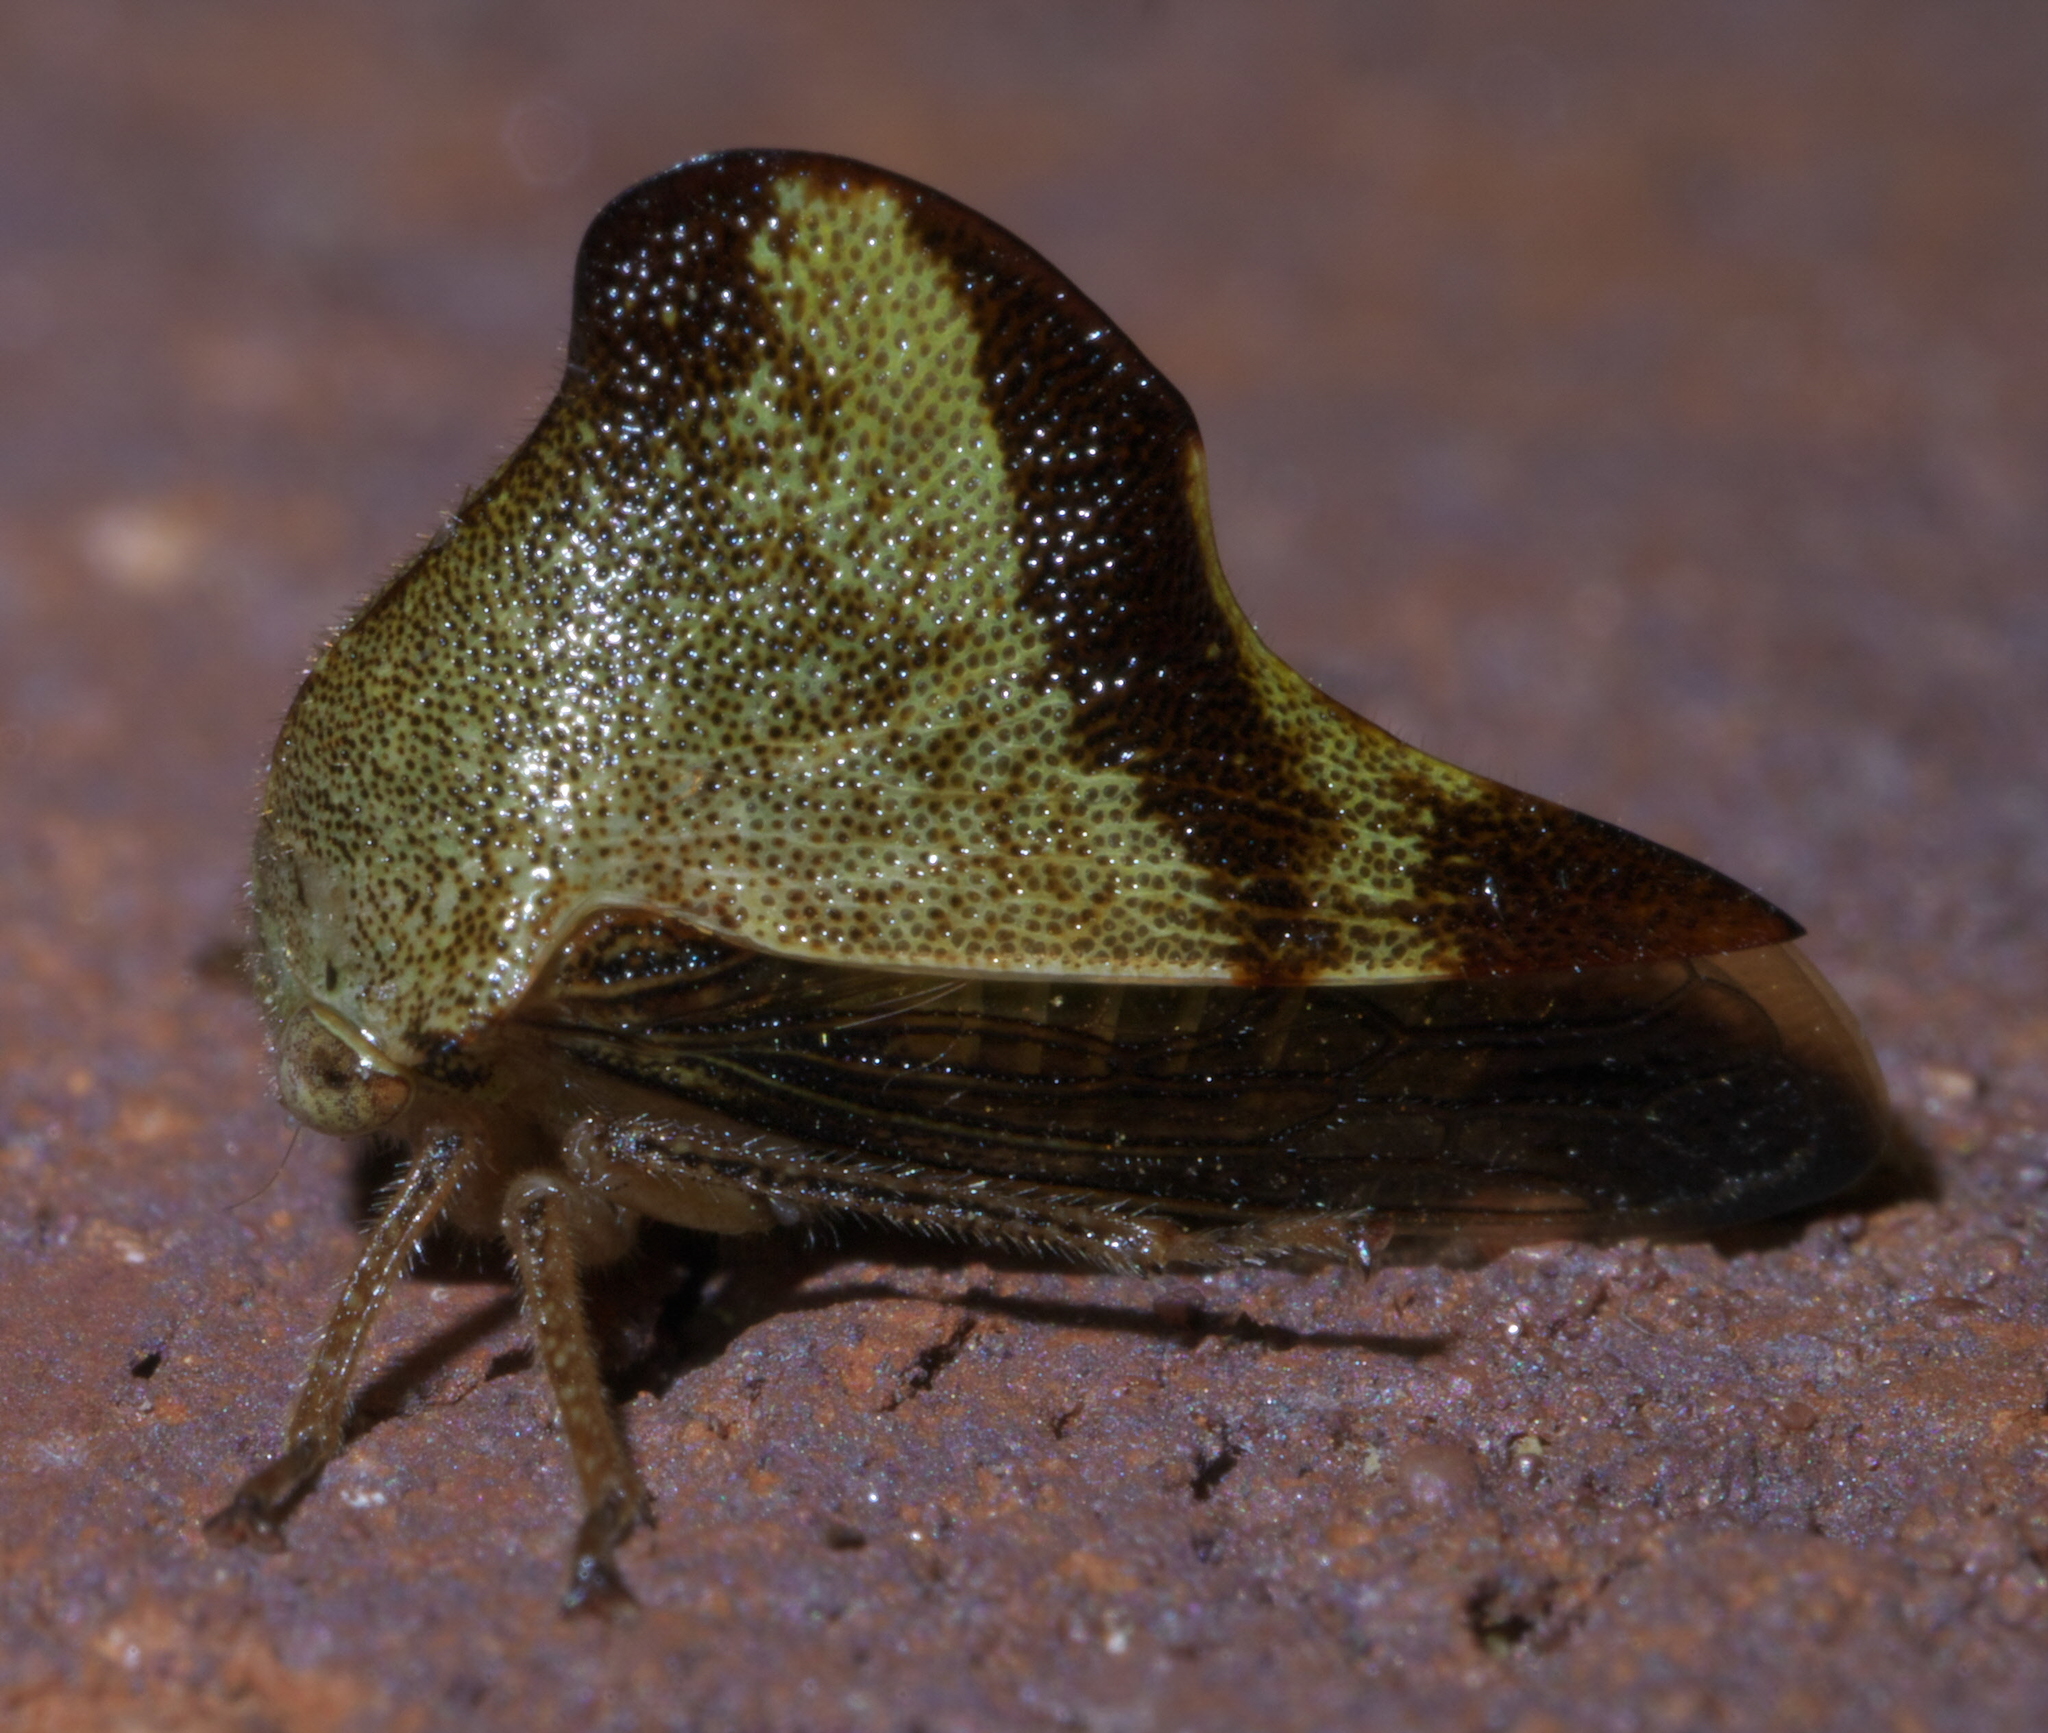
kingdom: Animalia
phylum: Arthropoda
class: Insecta
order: Hemiptera
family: Membracidae
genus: Helonica
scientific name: Helonica excelsa
